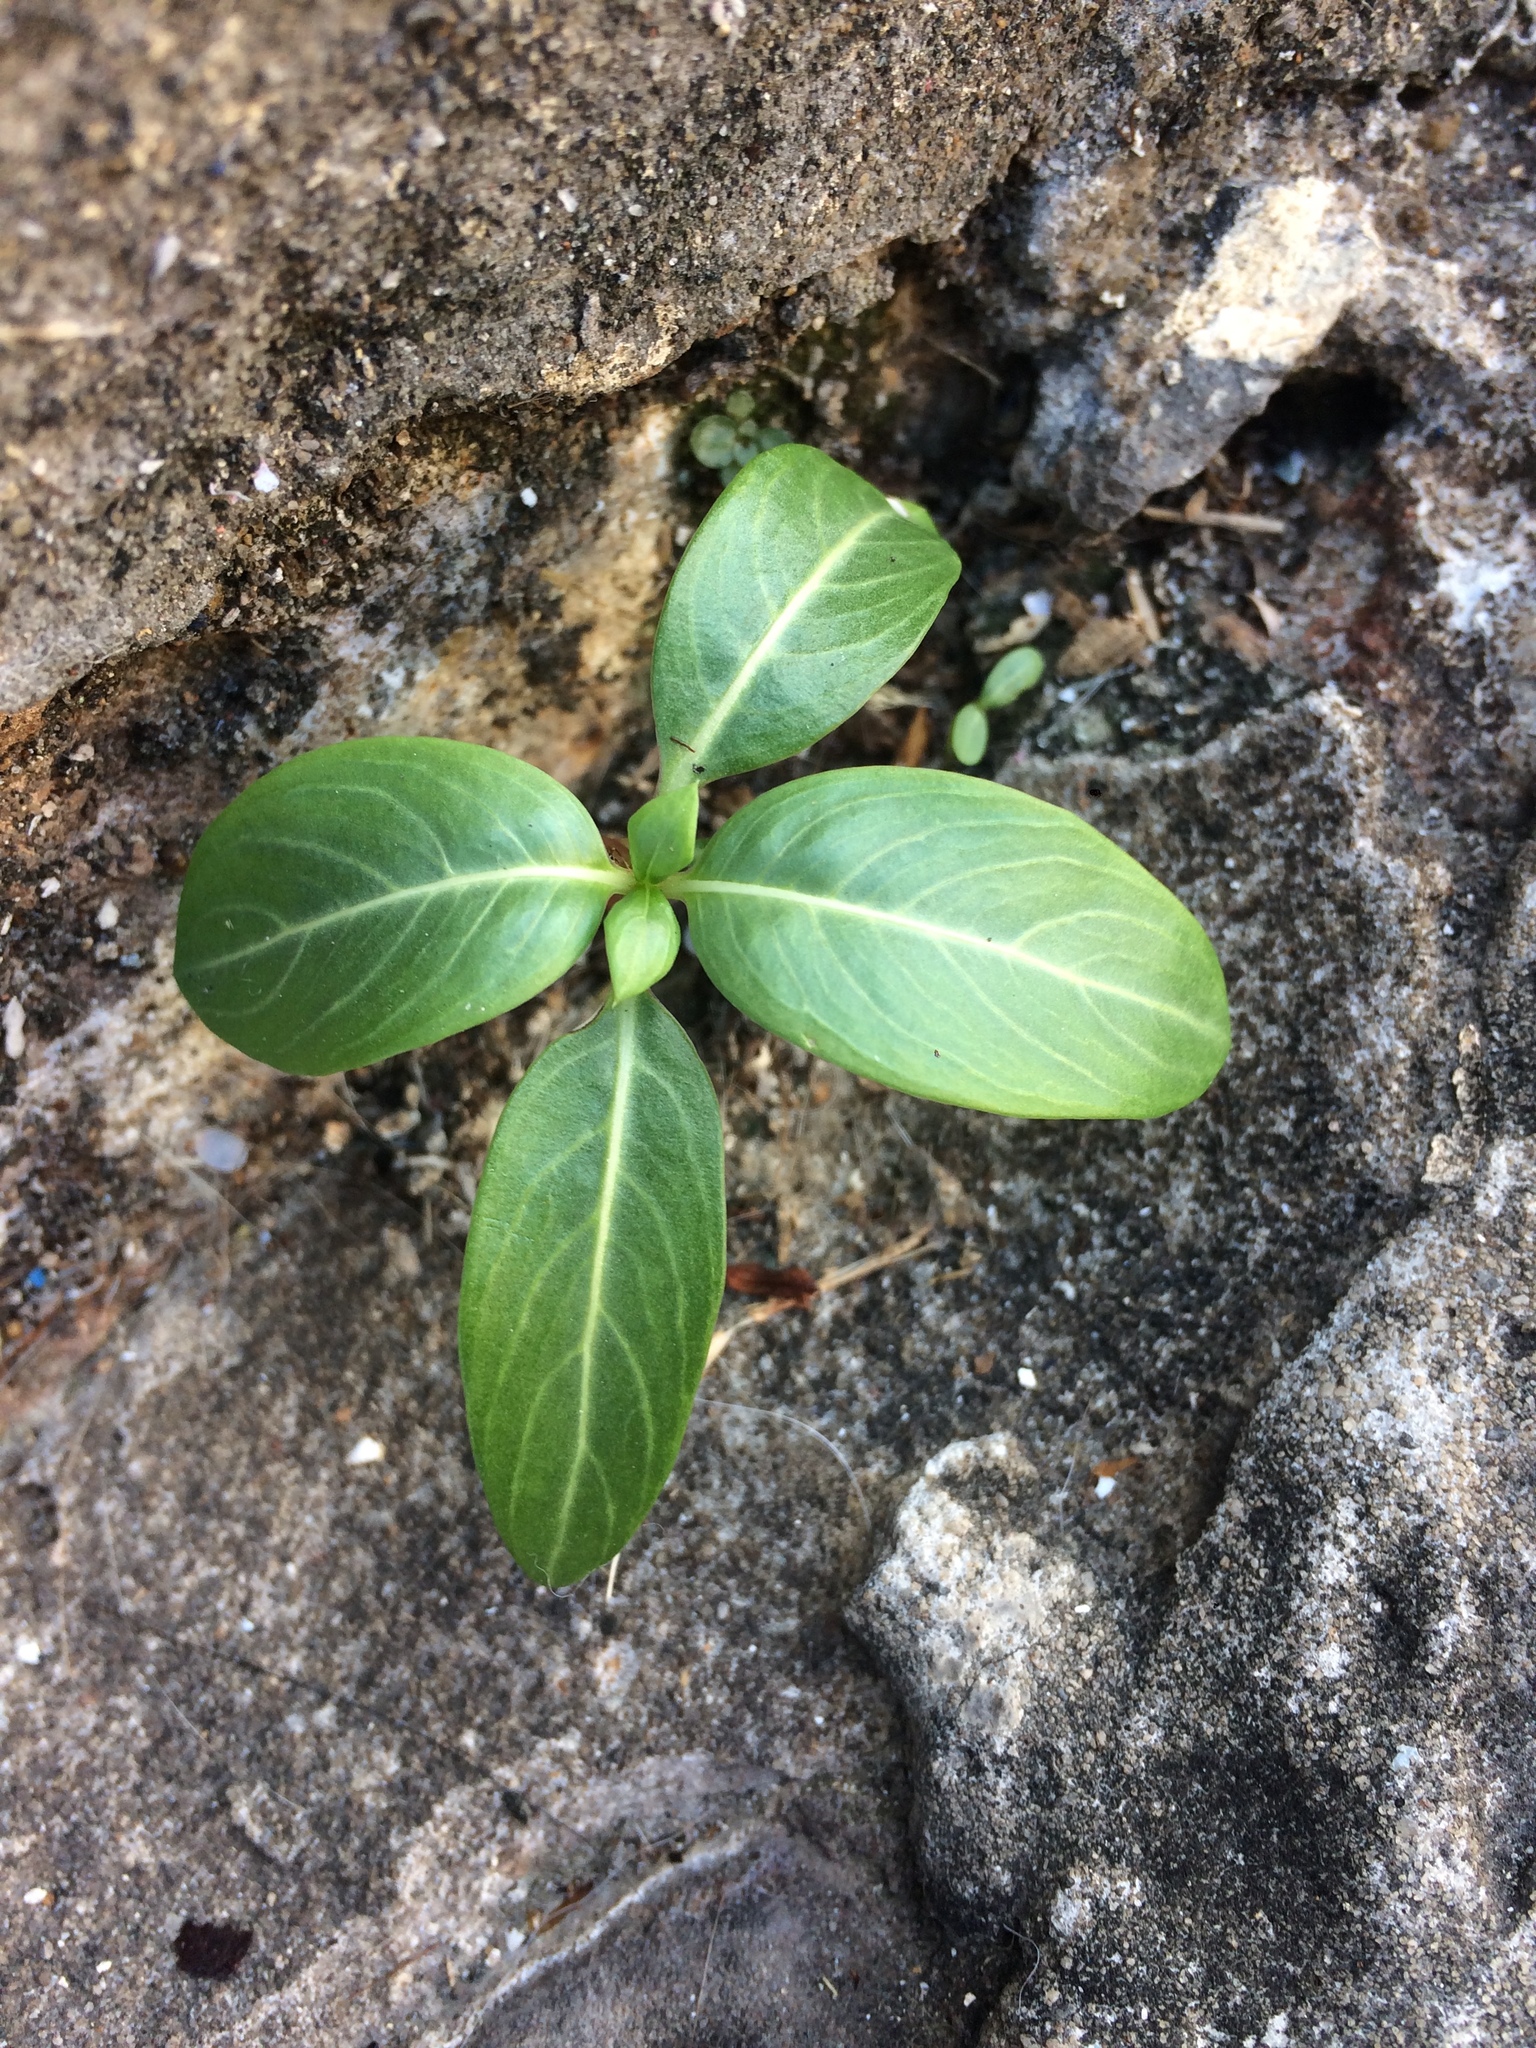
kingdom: Plantae
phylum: Tracheophyta
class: Magnoliopsida
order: Gentianales
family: Apocynaceae
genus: Catharanthus
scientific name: Catharanthus roseus
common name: Madagascar periwinkle
